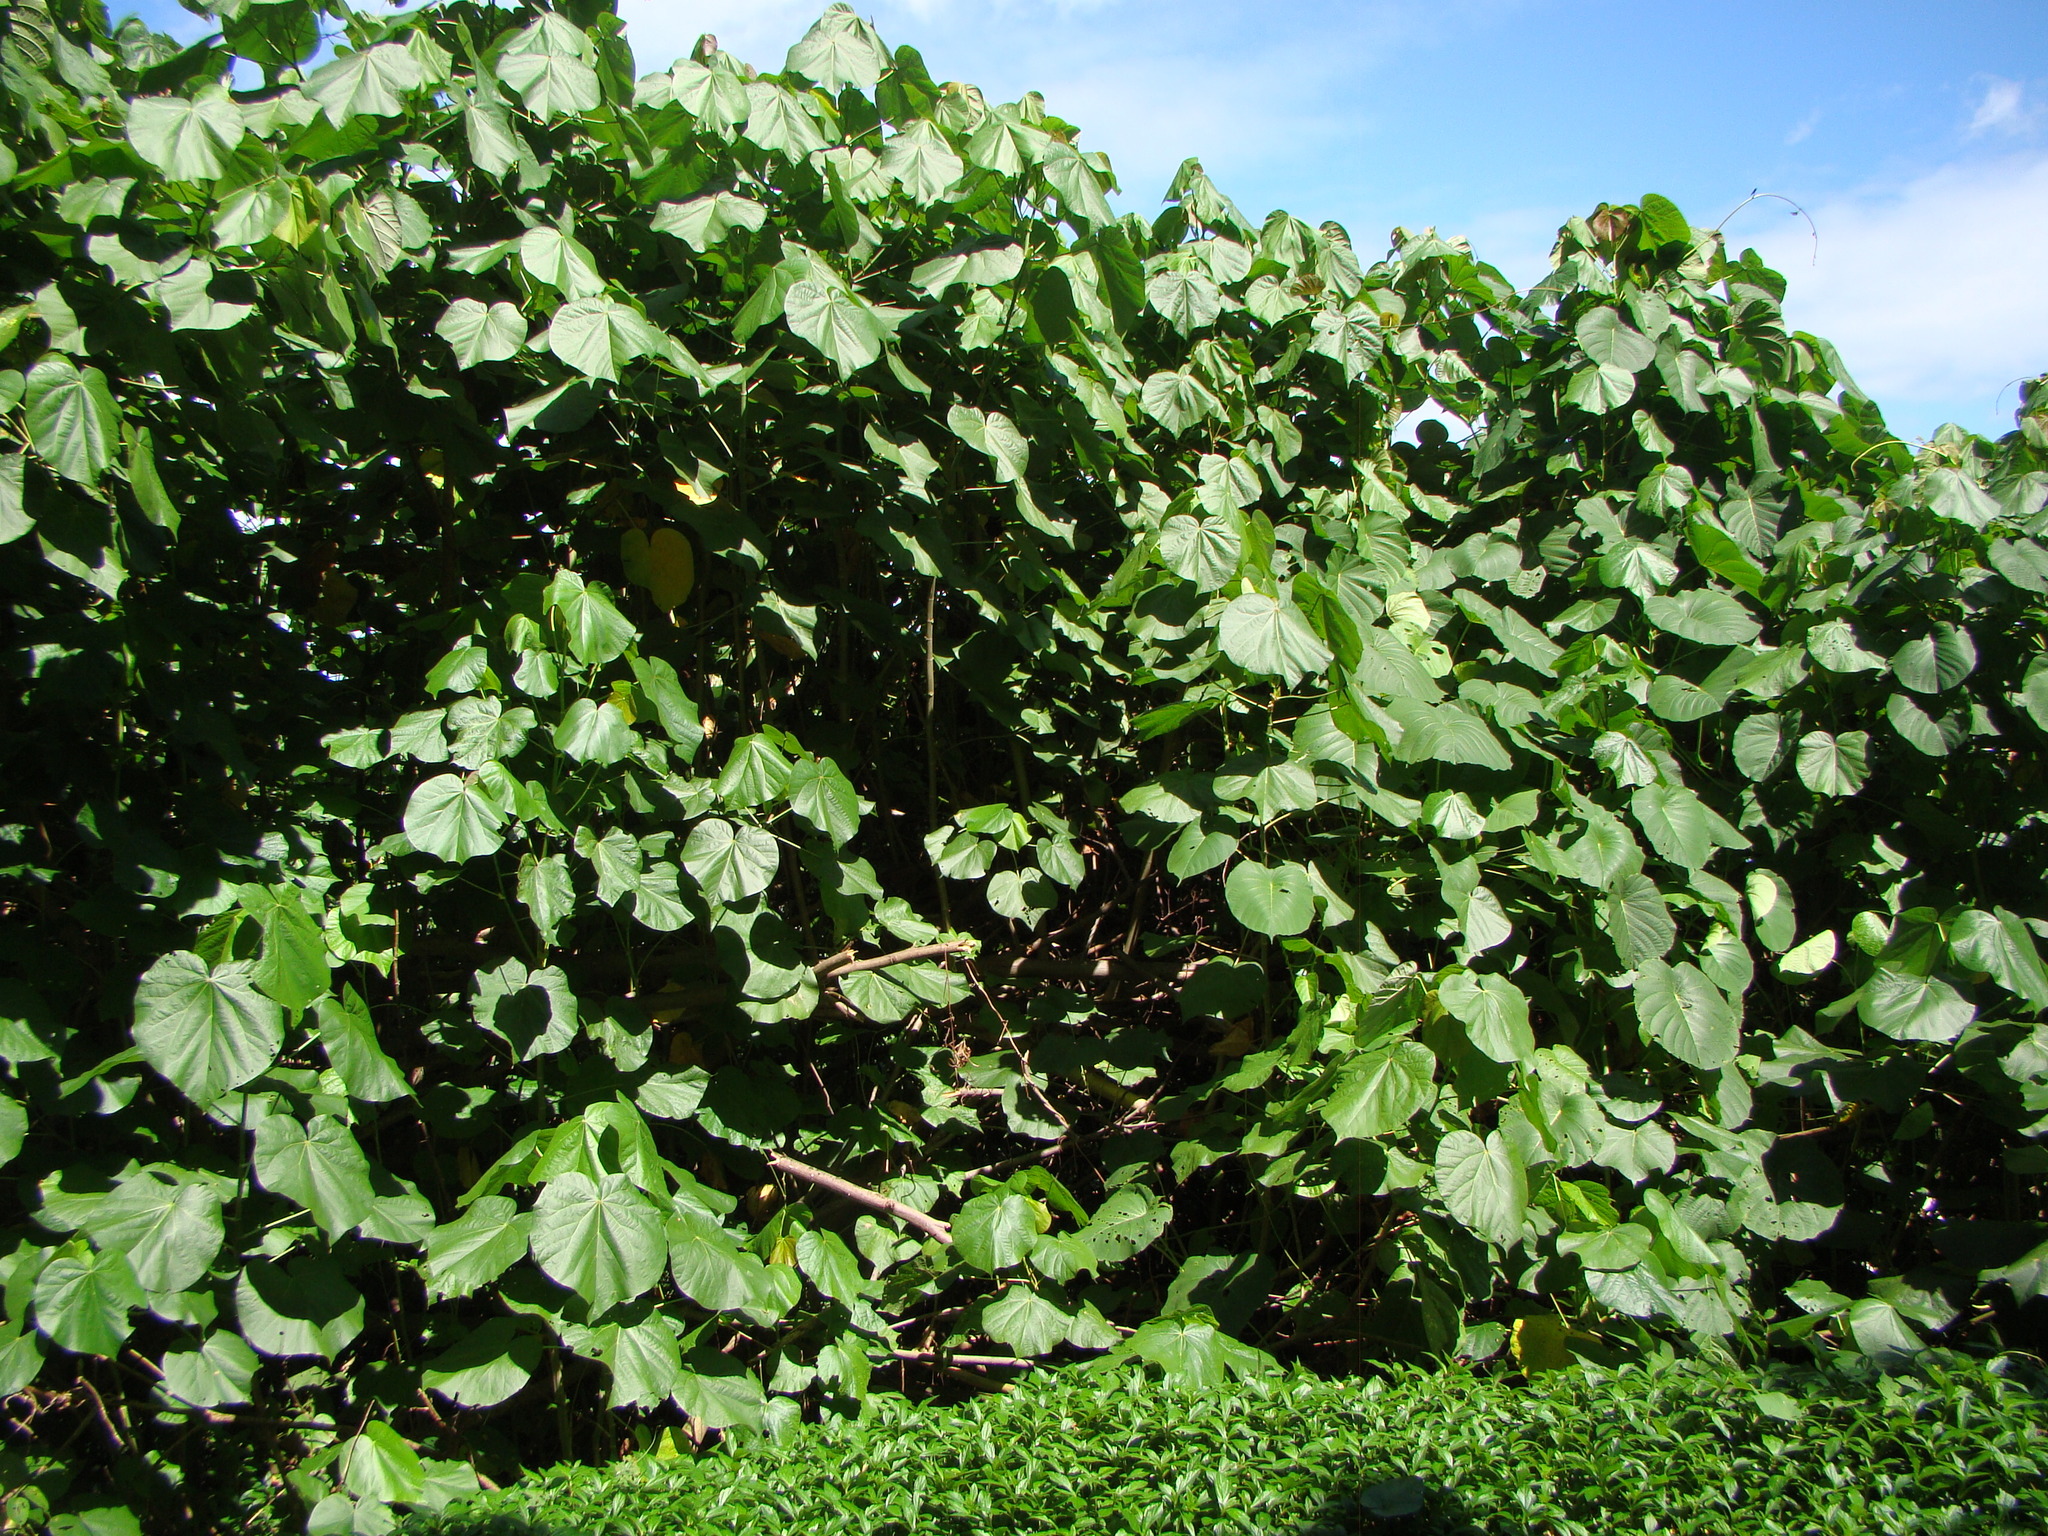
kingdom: Plantae
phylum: Tracheophyta
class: Magnoliopsida
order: Malvales
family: Malvaceae
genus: Talipariti
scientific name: Talipariti tiliaceum
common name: Sea hibiscus
